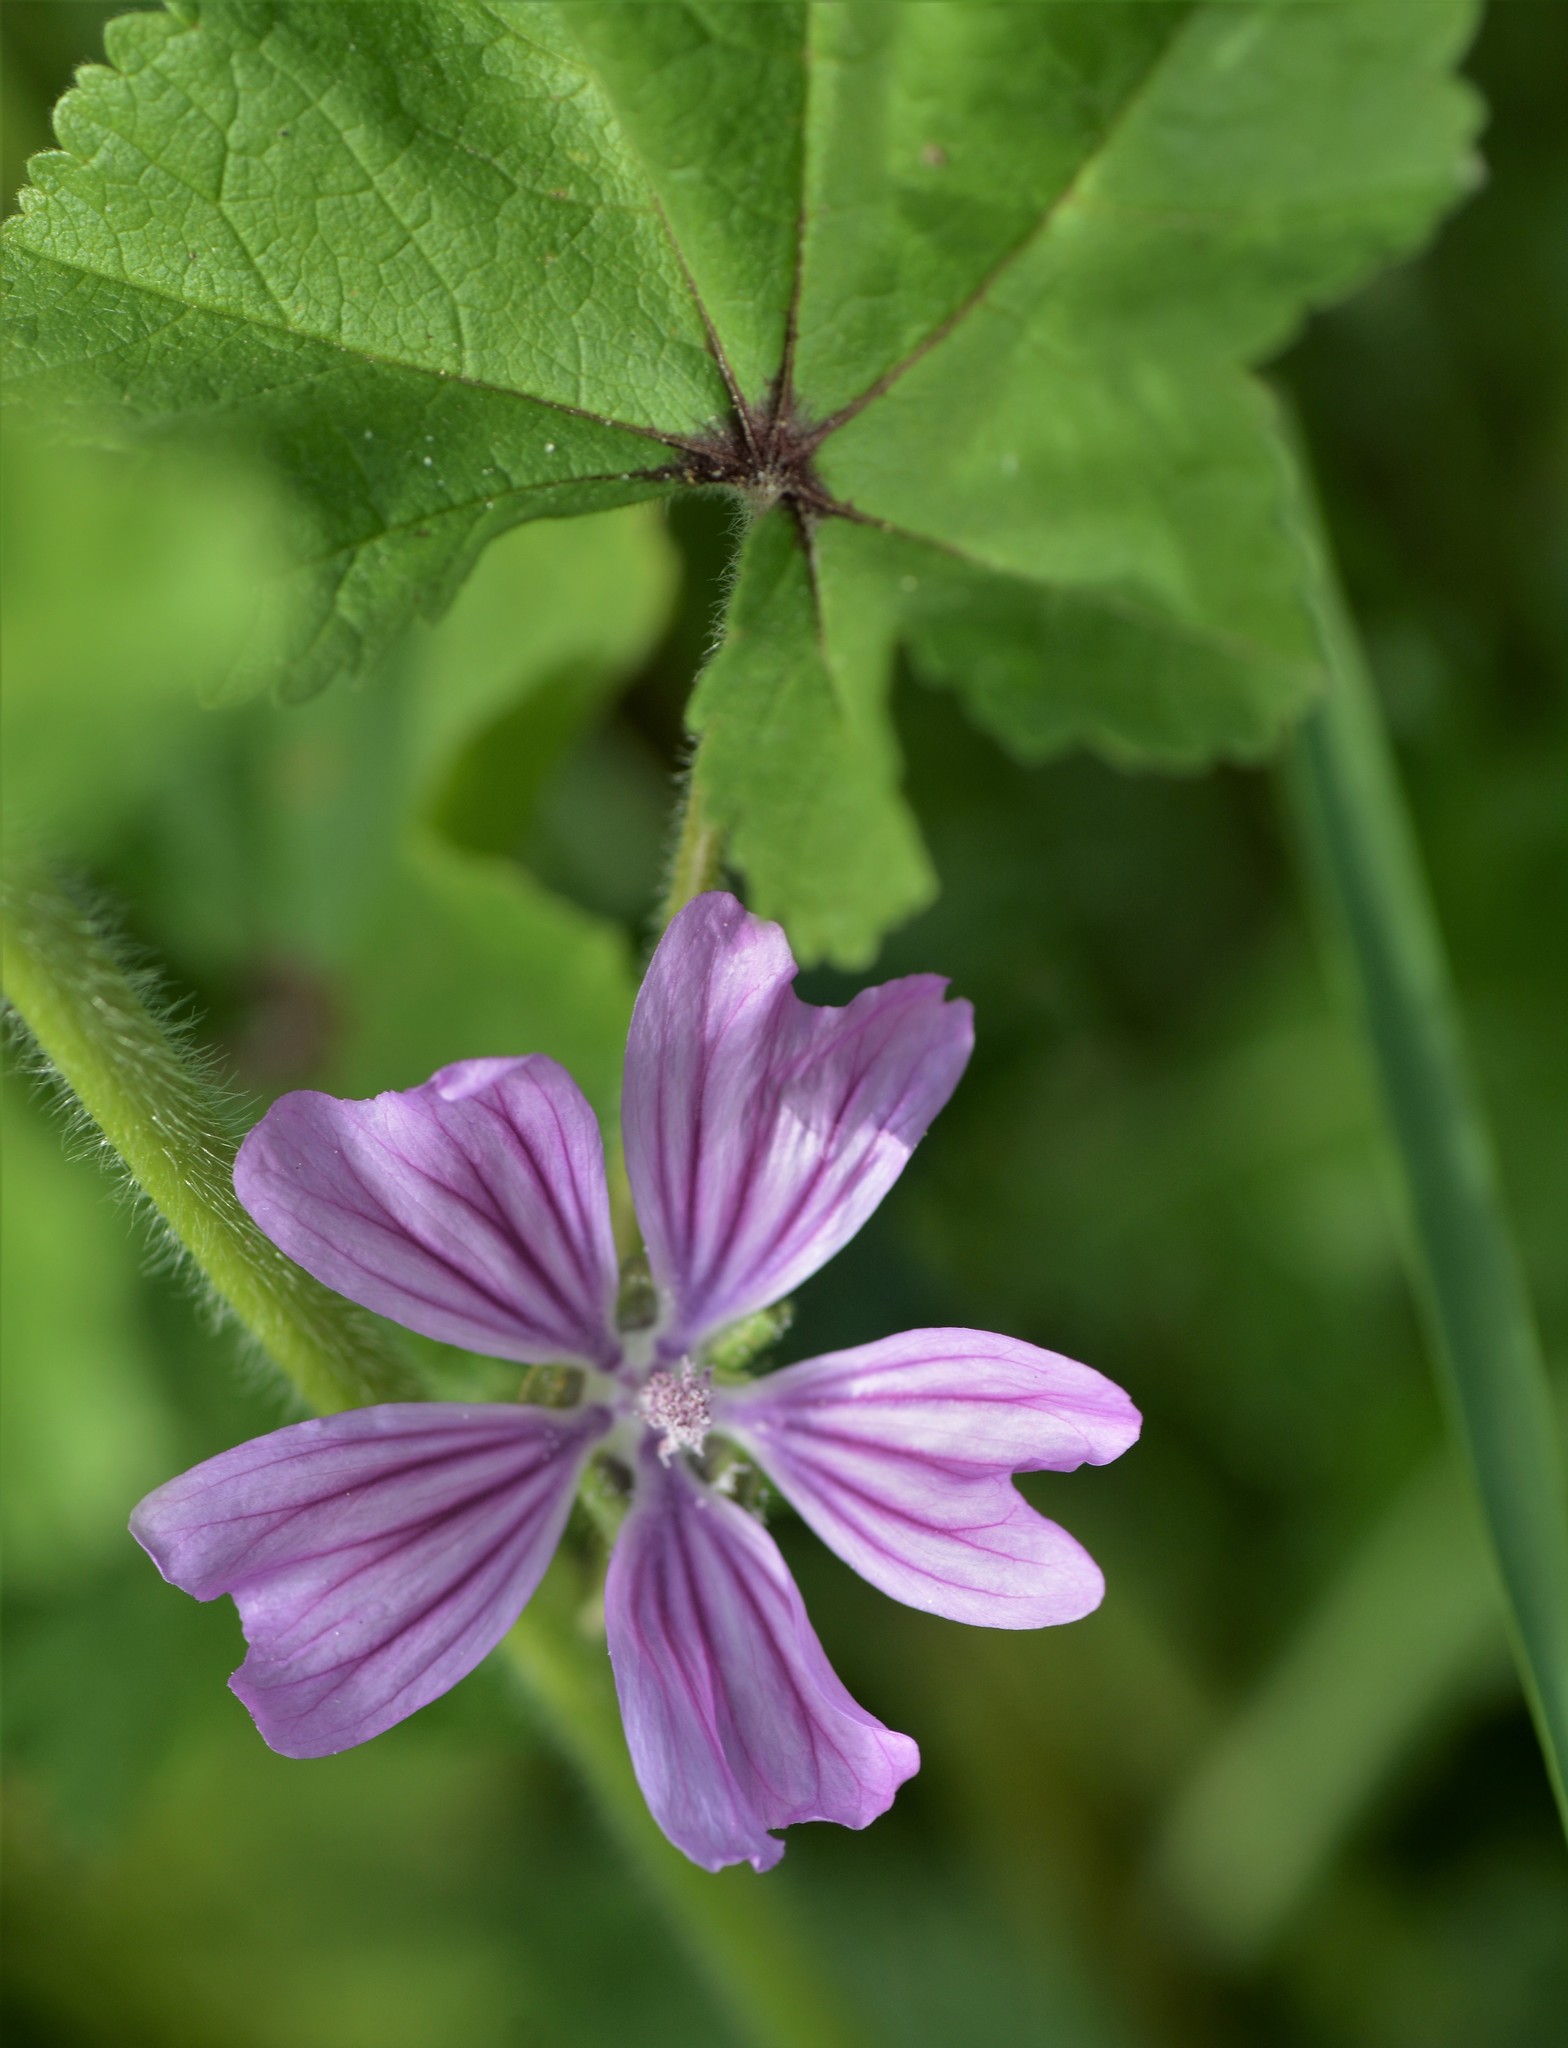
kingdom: Plantae
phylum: Tracheophyta
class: Magnoliopsida
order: Malvales
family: Malvaceae
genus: Malva
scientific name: Malva sylvestris
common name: Common mallow
